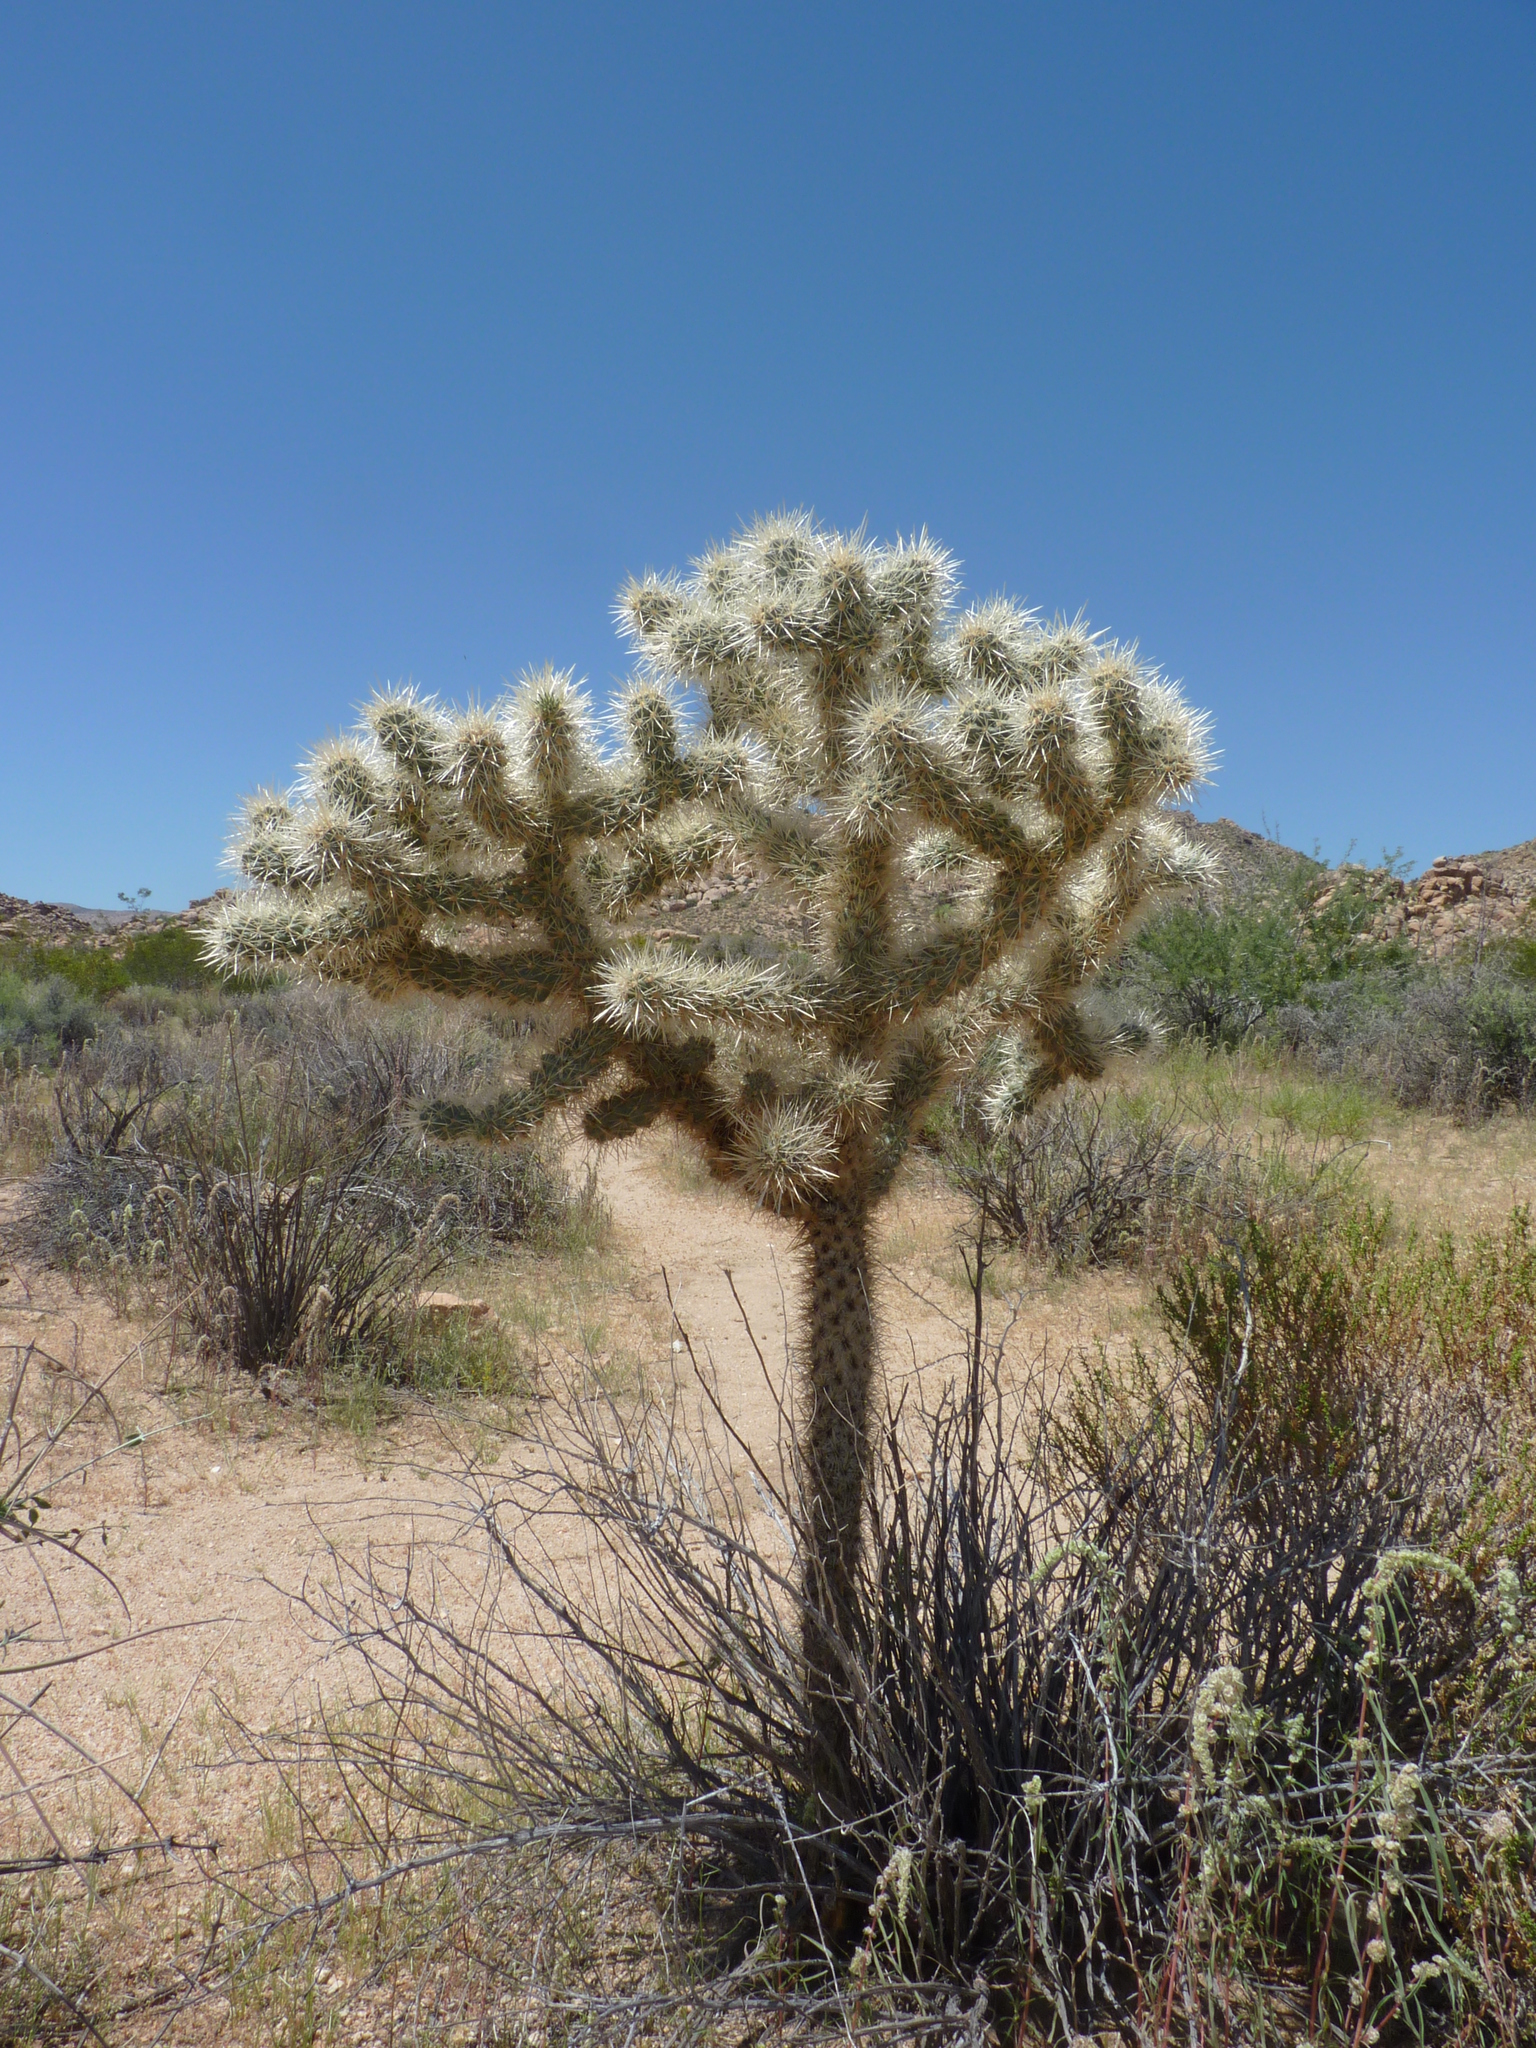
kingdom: Plantae
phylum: Tracheophyta
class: Magnoliopsida
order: Caryophyllales
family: Cactaceae
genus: Cylindropuntia
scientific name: Cylindropuntia echinocarpa
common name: Ground cholla
